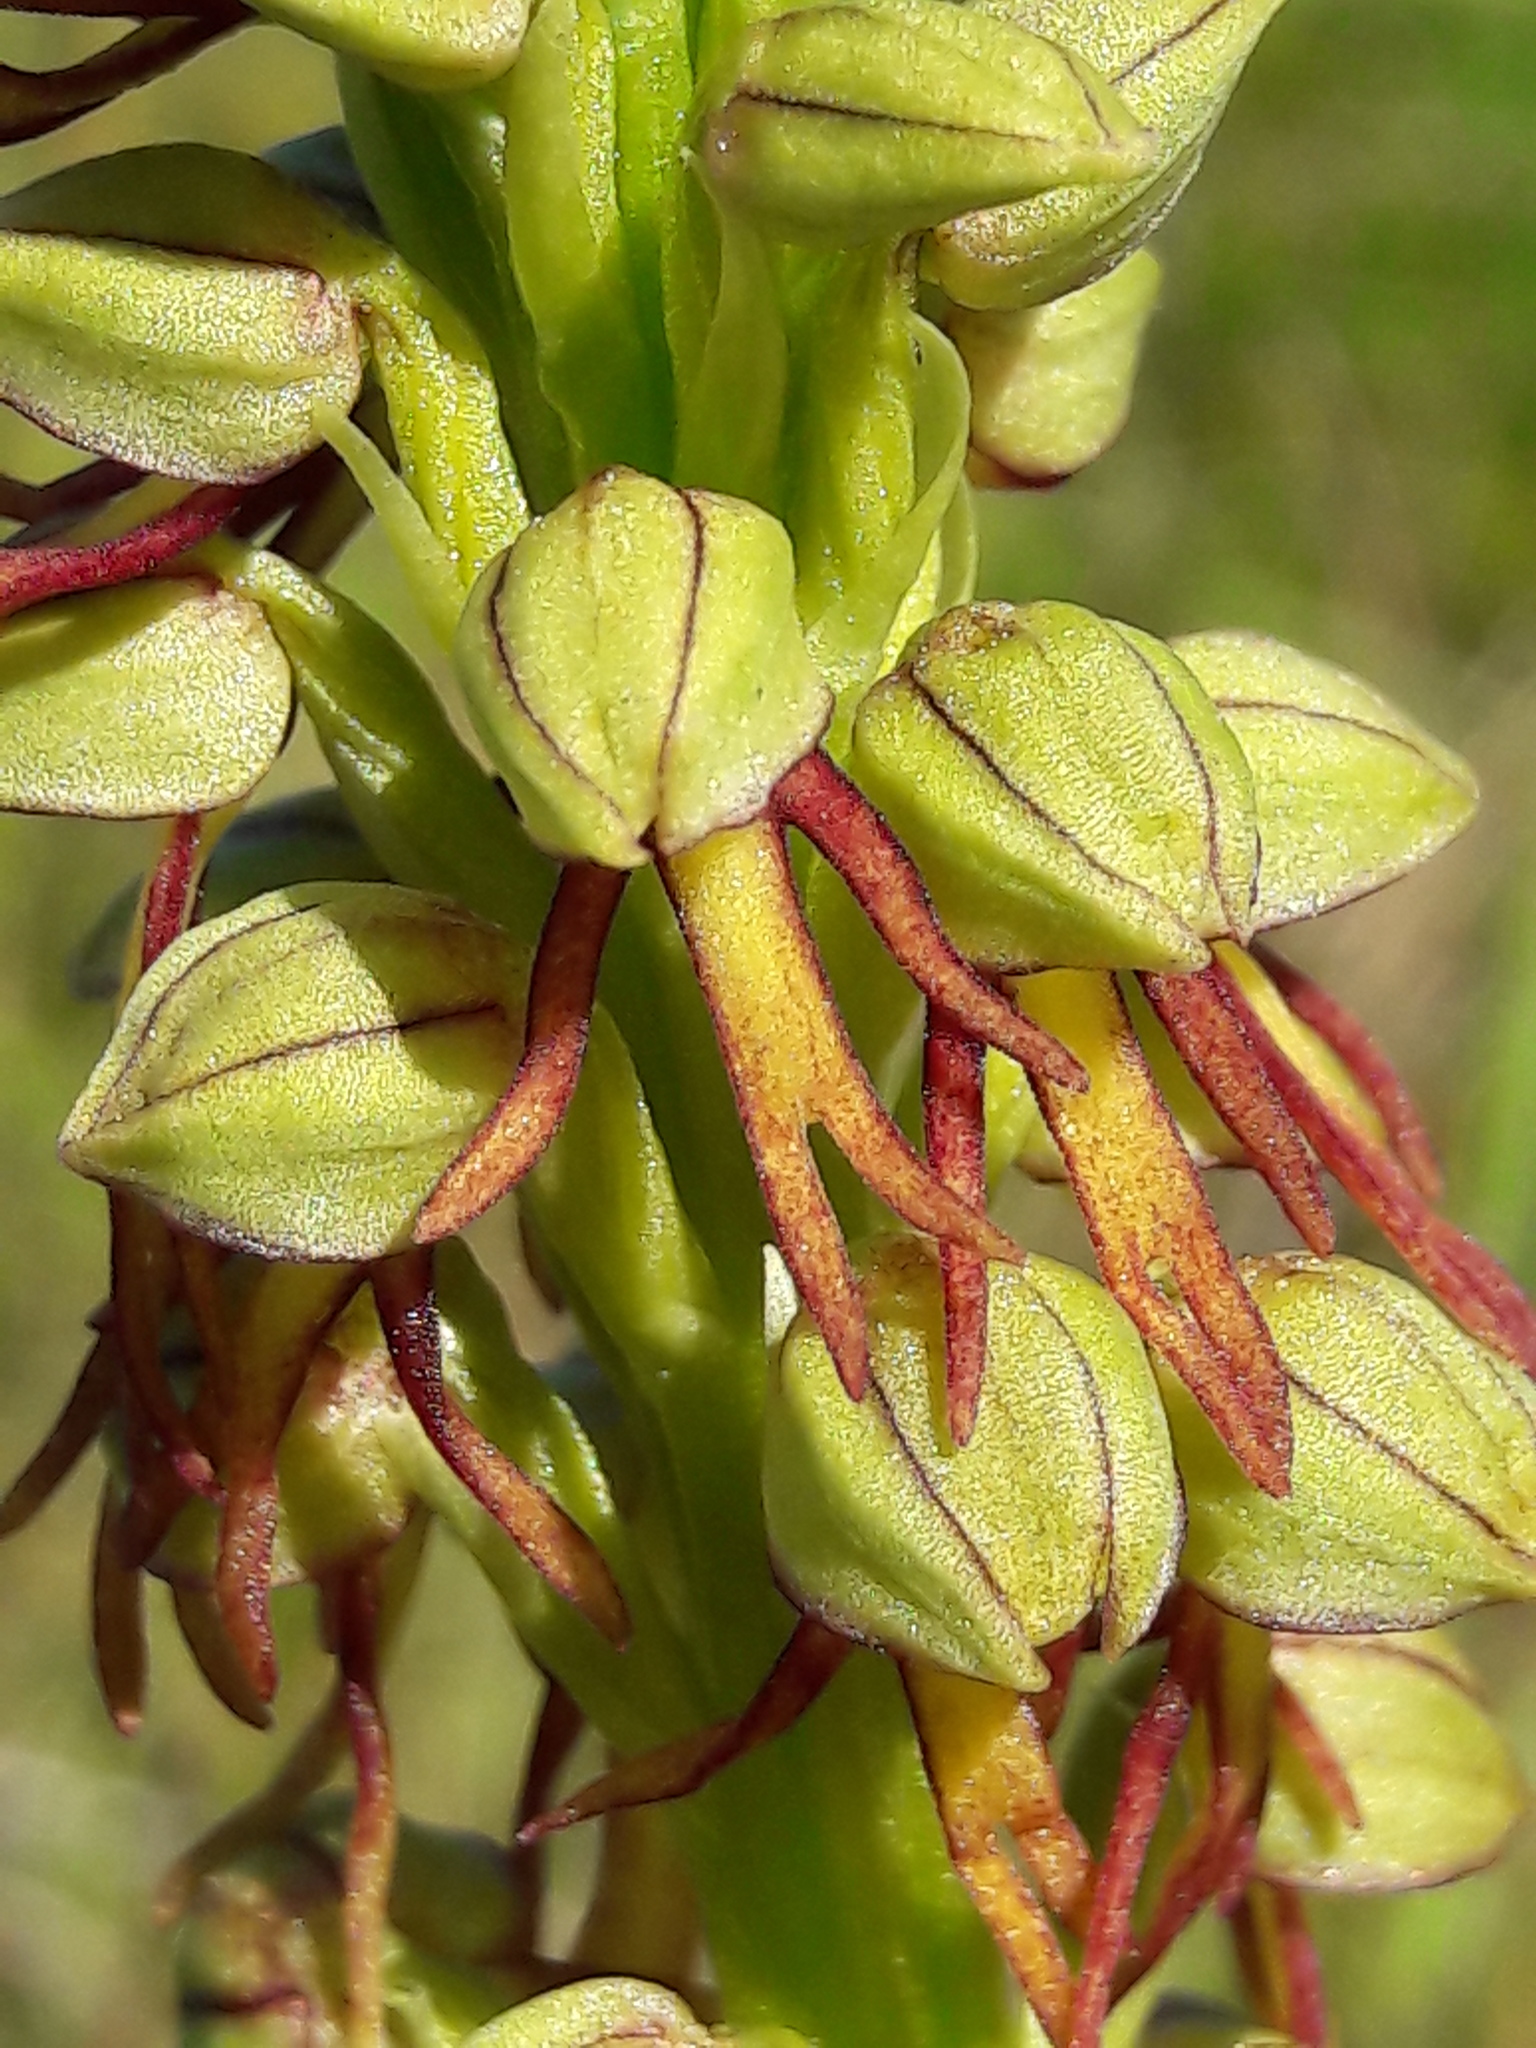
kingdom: Plantae
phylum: Tracheophyta
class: Liliopsida
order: Asparagales
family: Orchidaceae
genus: Orchis
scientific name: Orchis anthropophora
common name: Man orchid
